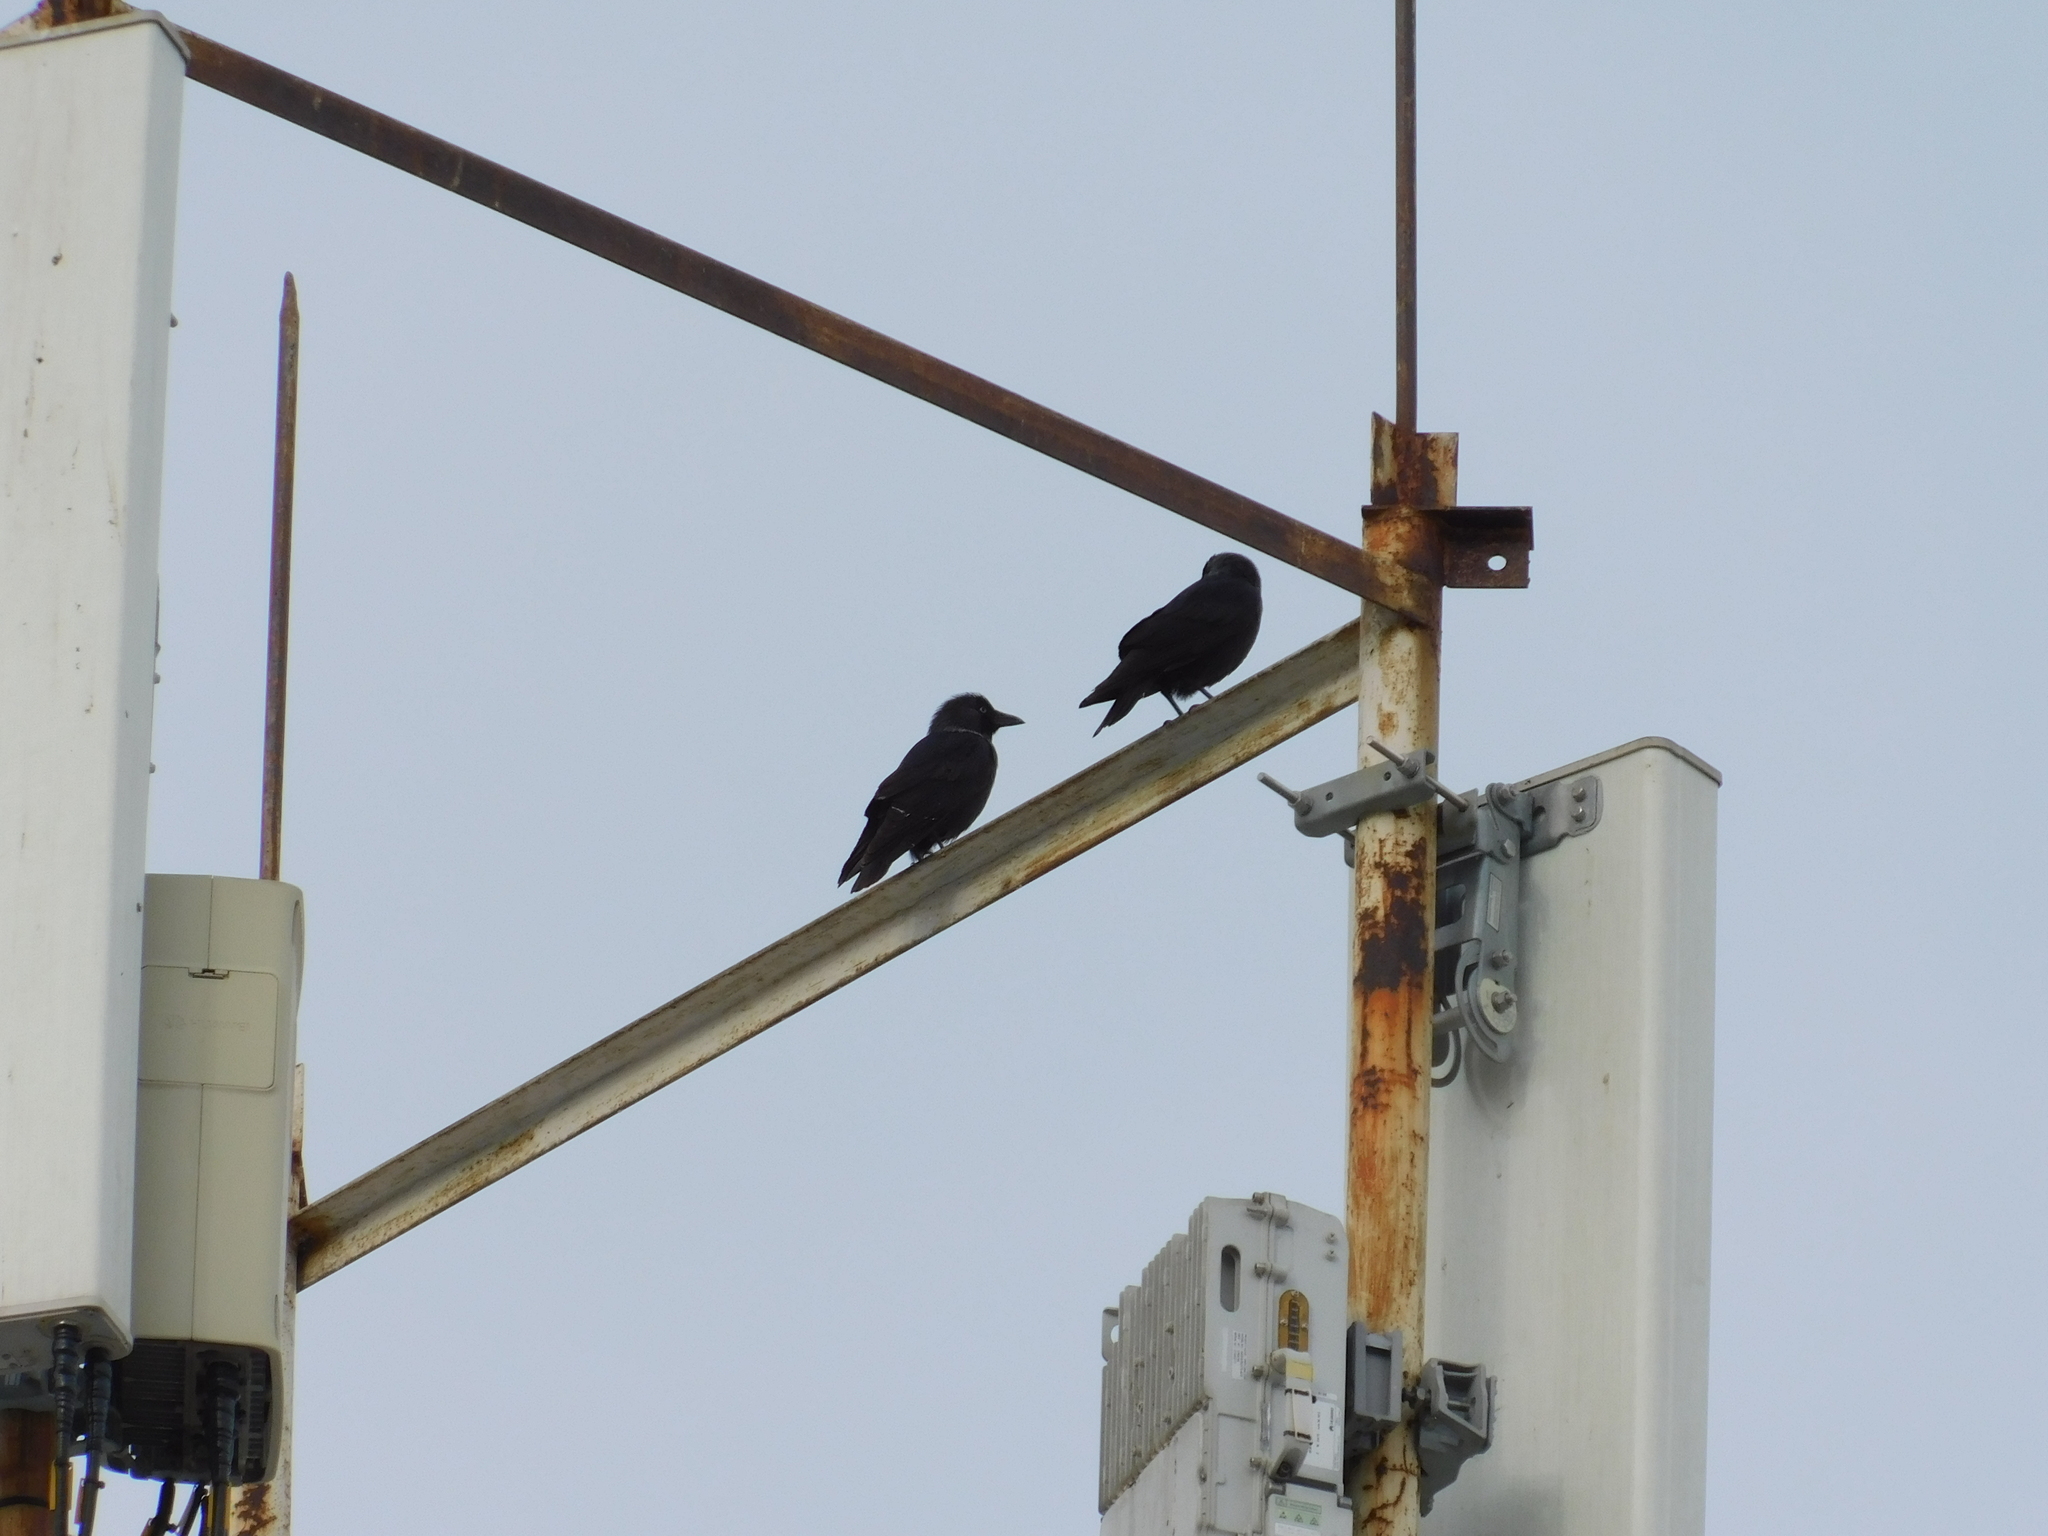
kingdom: Animalia
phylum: Chordata
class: Aves
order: Passeriformes
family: Corvidae
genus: Coloeus
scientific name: Coloeus monedula
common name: Western jackdaw
